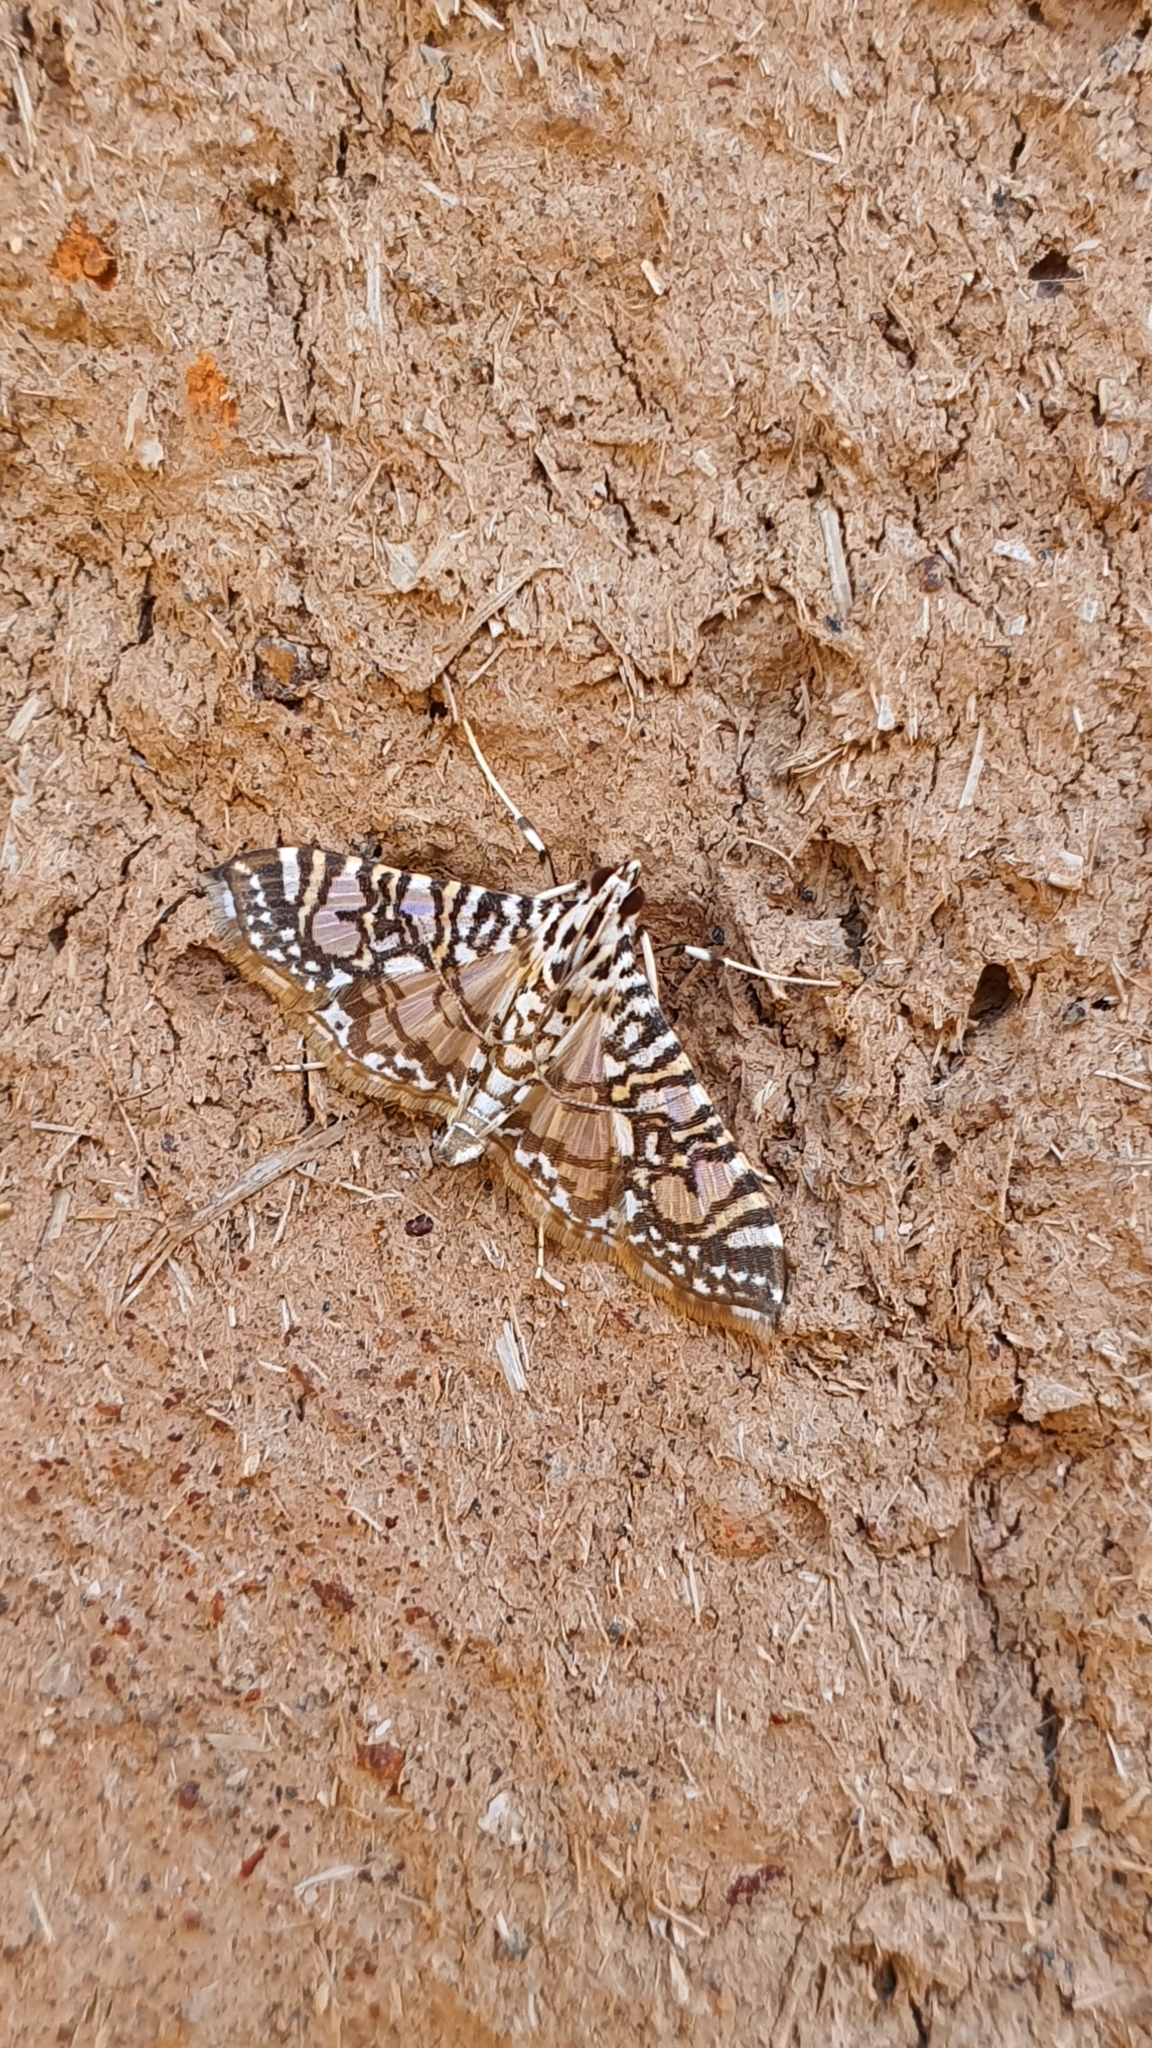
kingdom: Animalia
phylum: Arthropoda
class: Insecta
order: Lepidoptera
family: Crambidae
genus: Glyphodes
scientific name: Glyphodes onychinalis
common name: Swan plant moth
